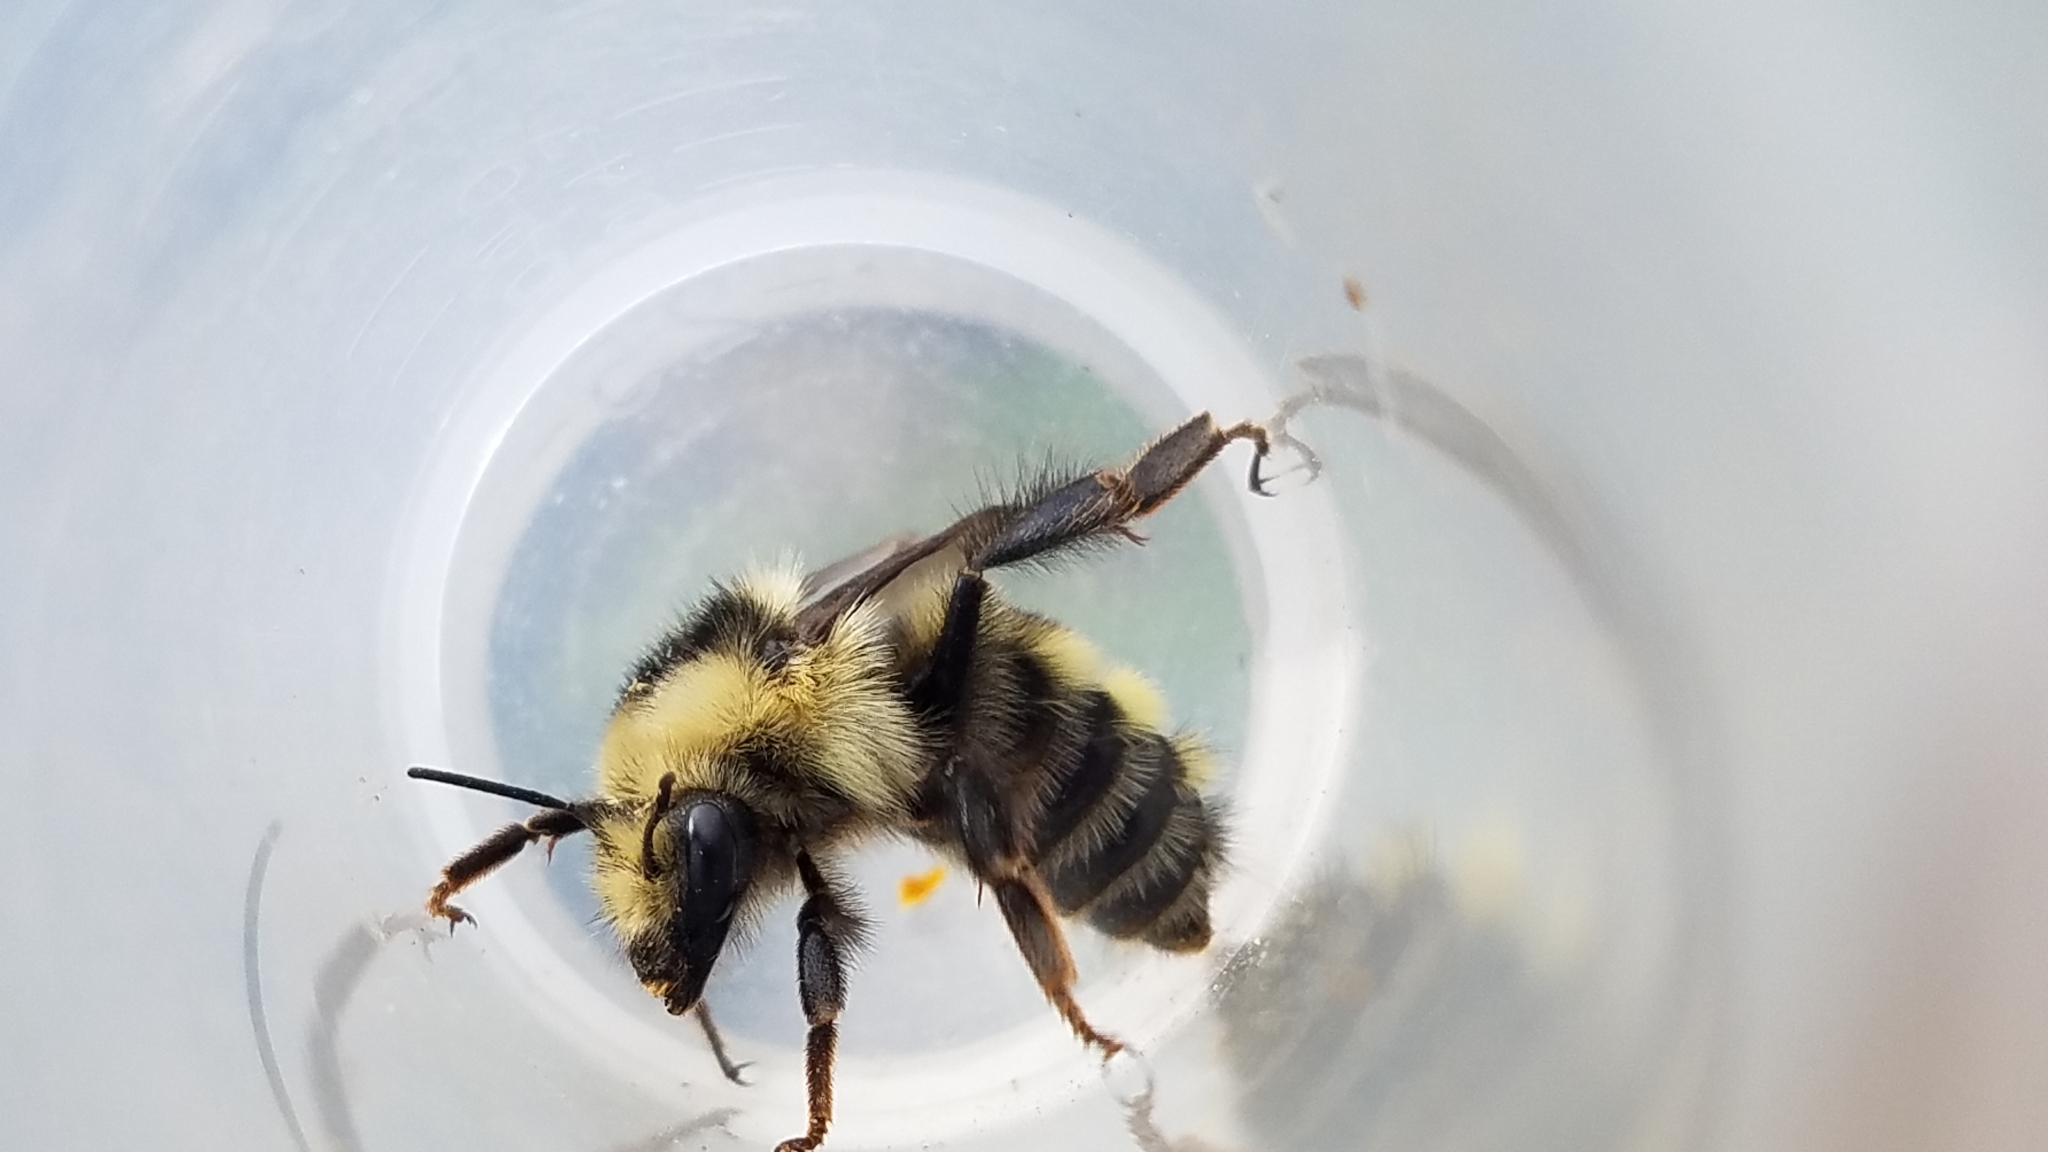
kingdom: Animalia
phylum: Arthropoda
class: Insecta
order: Hymenoptera
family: Apidae
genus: Bombus
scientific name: Bombus vandykei
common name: Van dyke bumble bee
